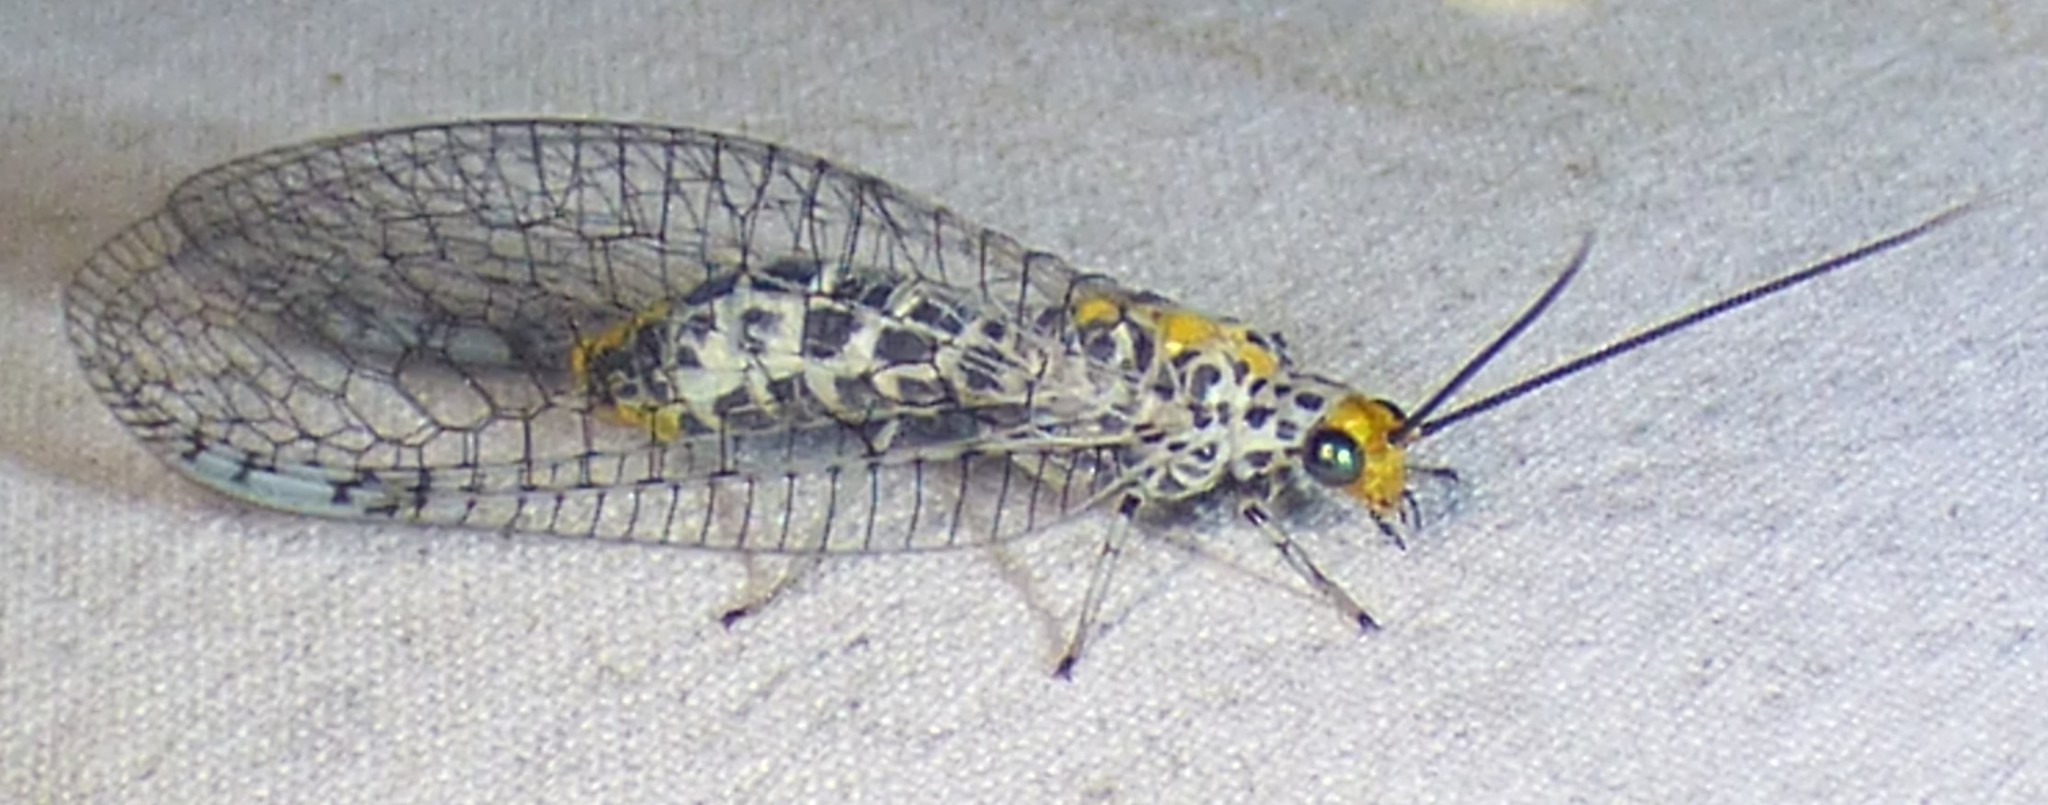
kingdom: Animalia
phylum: Arthropoda
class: Insecta
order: Neuroptera
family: Chrysopidae
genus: Abachrysa
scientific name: Abachrysa eureka
